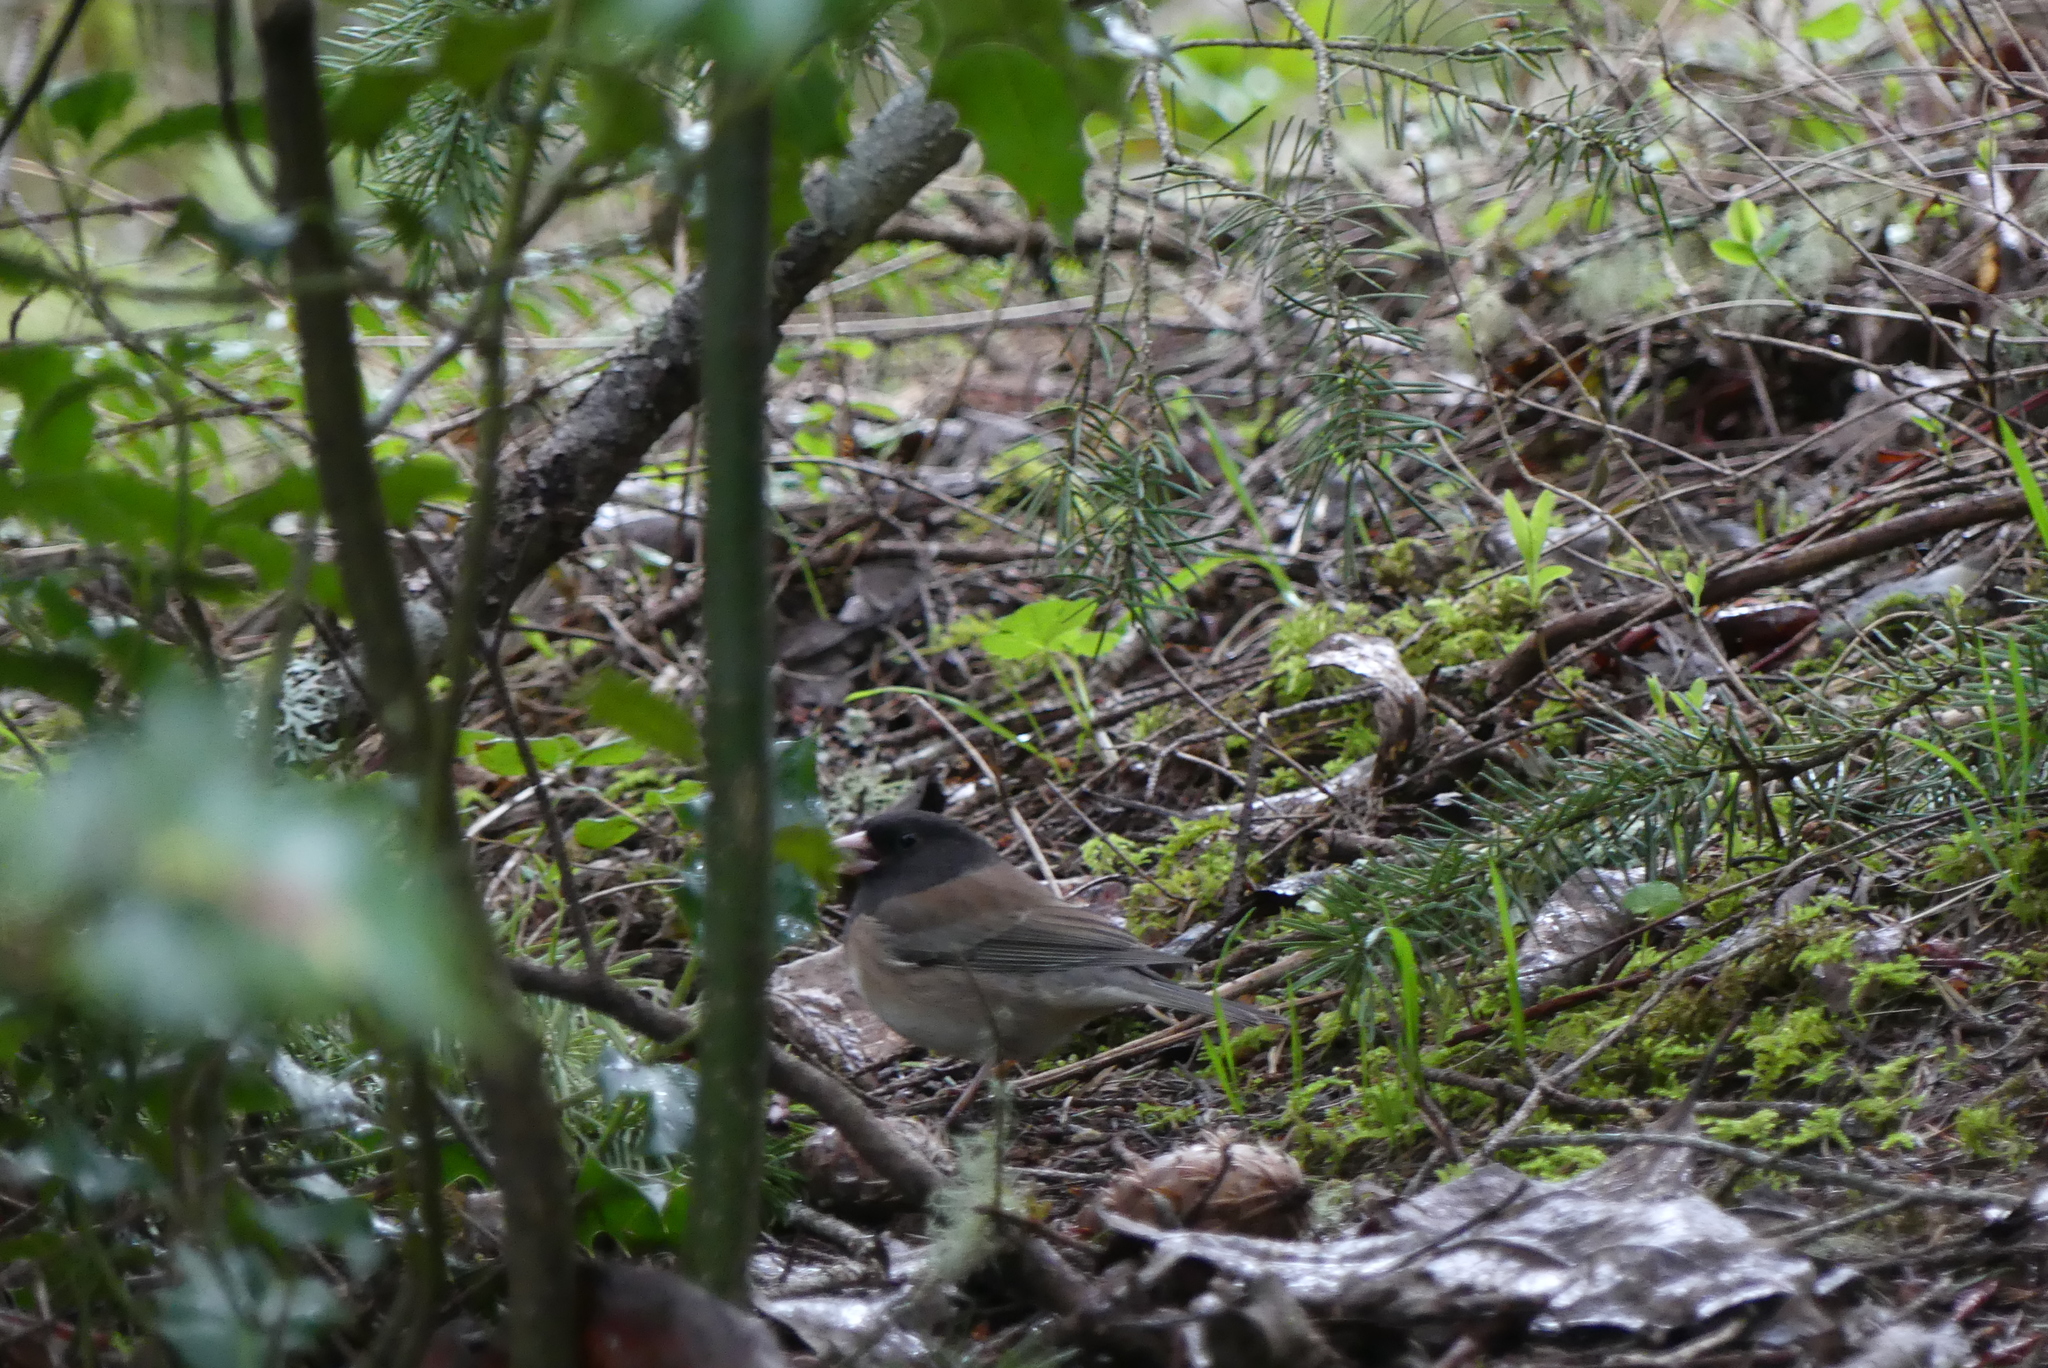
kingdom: Animalia
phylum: Chordata
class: Aves
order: Passeriformes
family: Passerellidae
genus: Junco
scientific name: Junco hyemalis
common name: Dark-eyed junco
